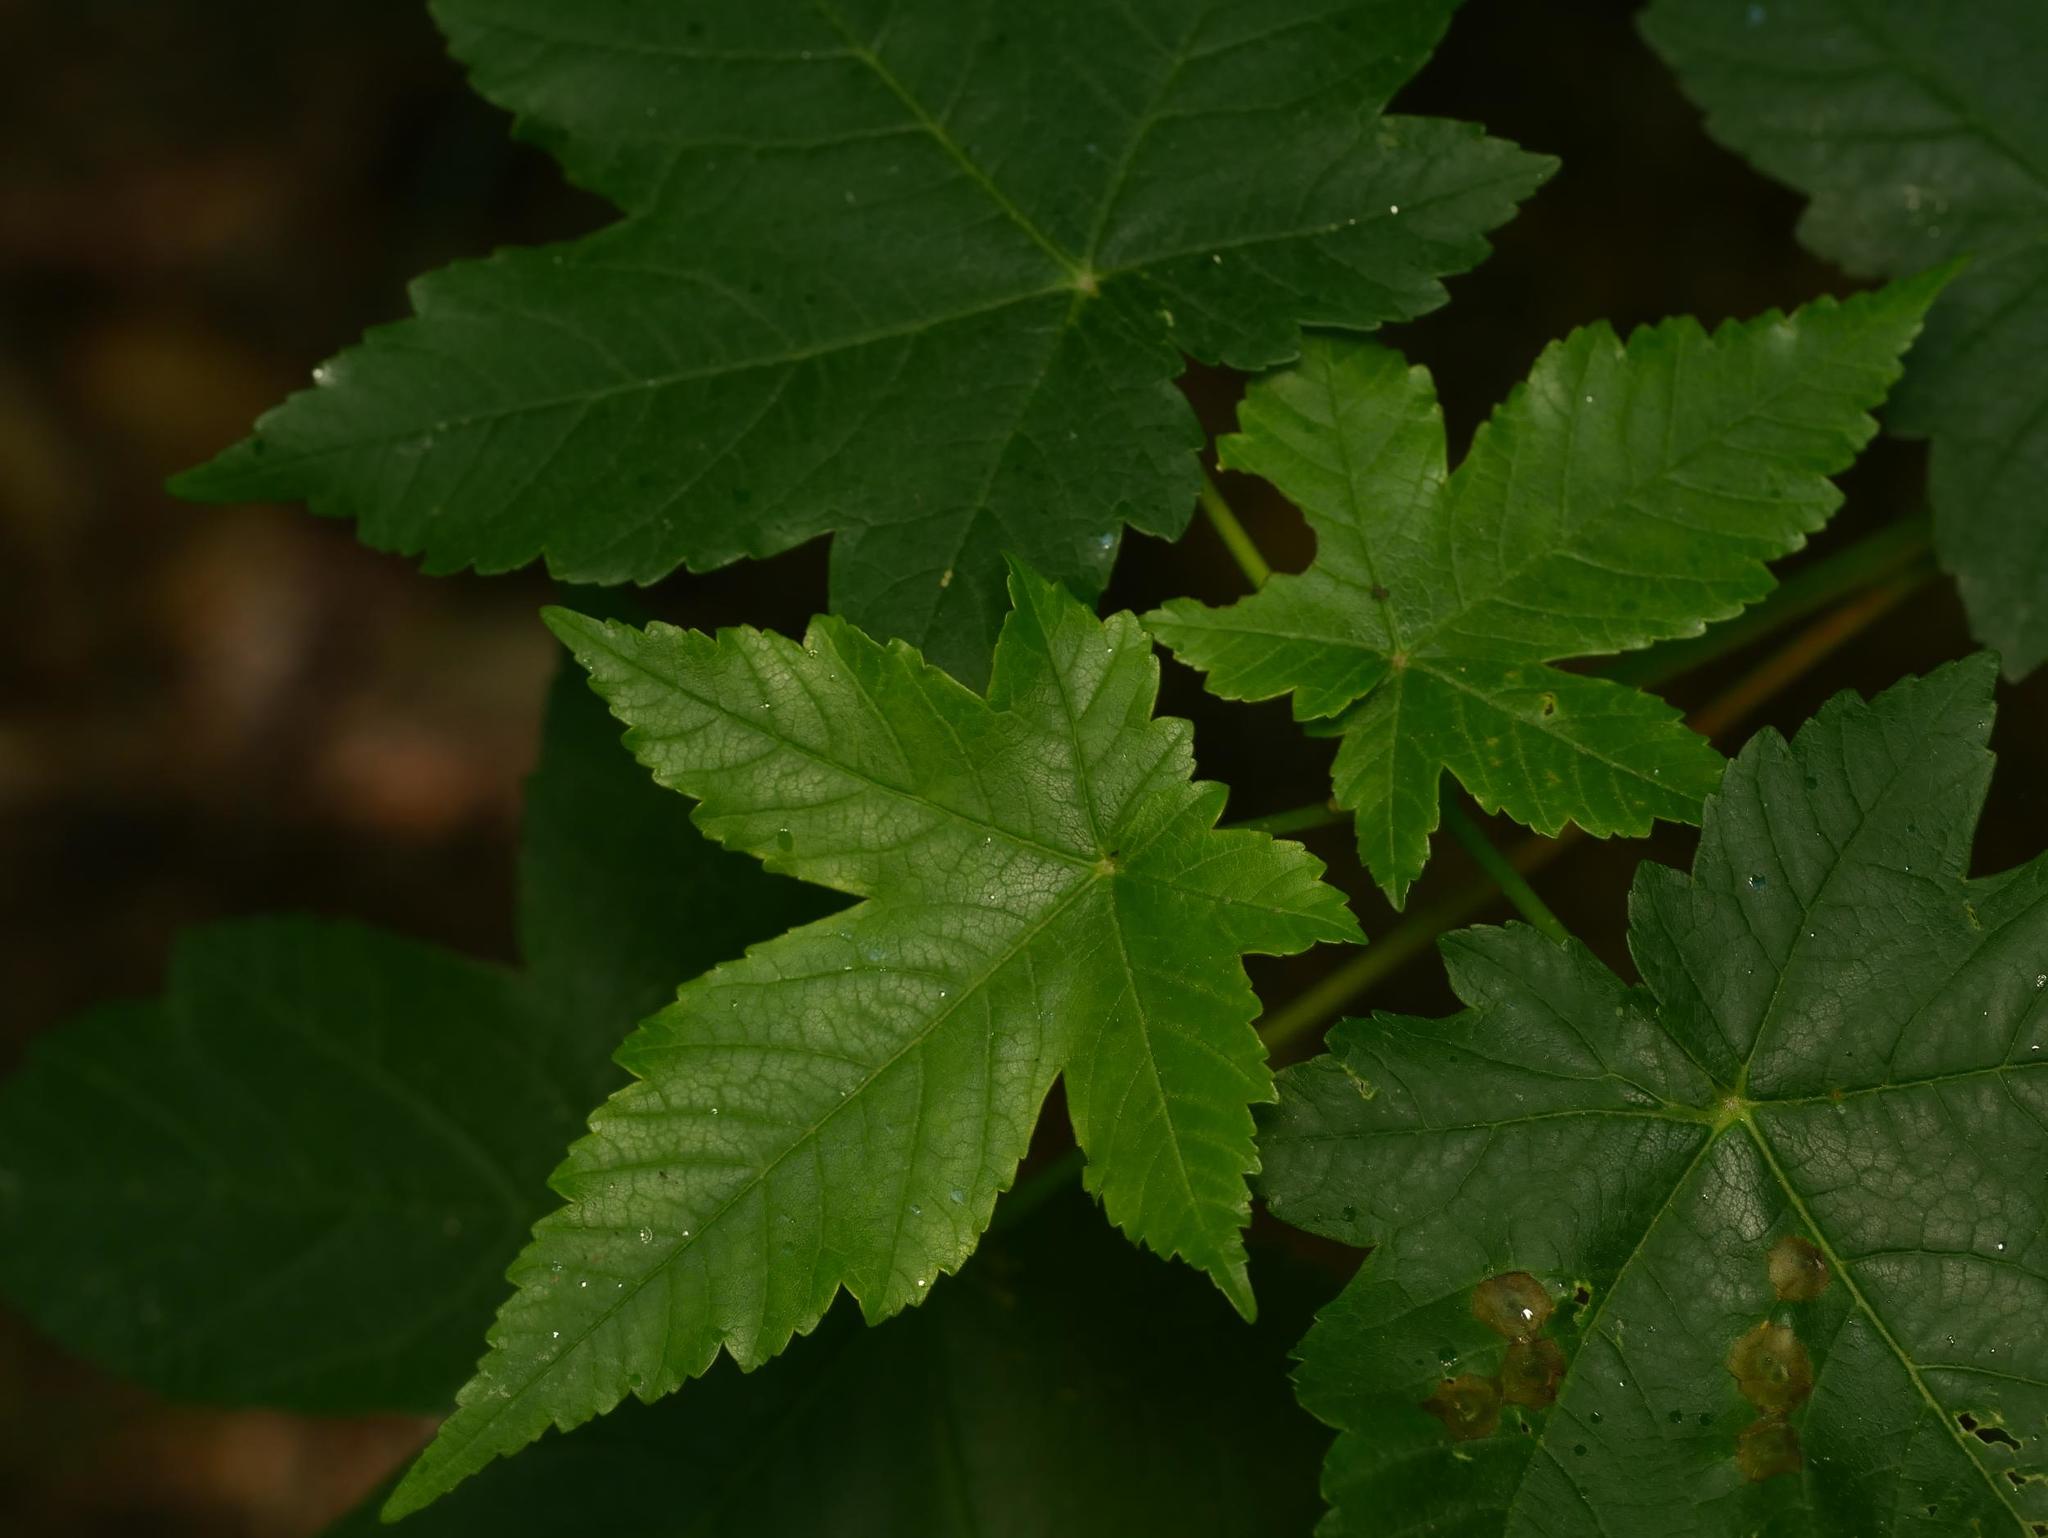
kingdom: Plantae
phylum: Tracheophyta
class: Magnoliopsida
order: Sapindales
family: Sapindaceae
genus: Acer
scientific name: Acer pseudoplatanus
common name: Sycamore
